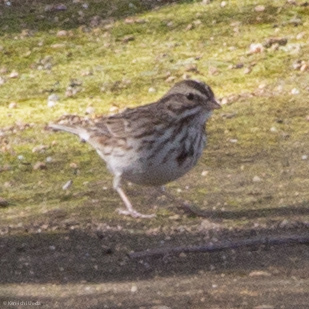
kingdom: Animalia
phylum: Chordata
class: Aves
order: Passeriformes
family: Passerellidae
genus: Passerculus
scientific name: Passerculus sandwichensis
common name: Savannah sparrow
